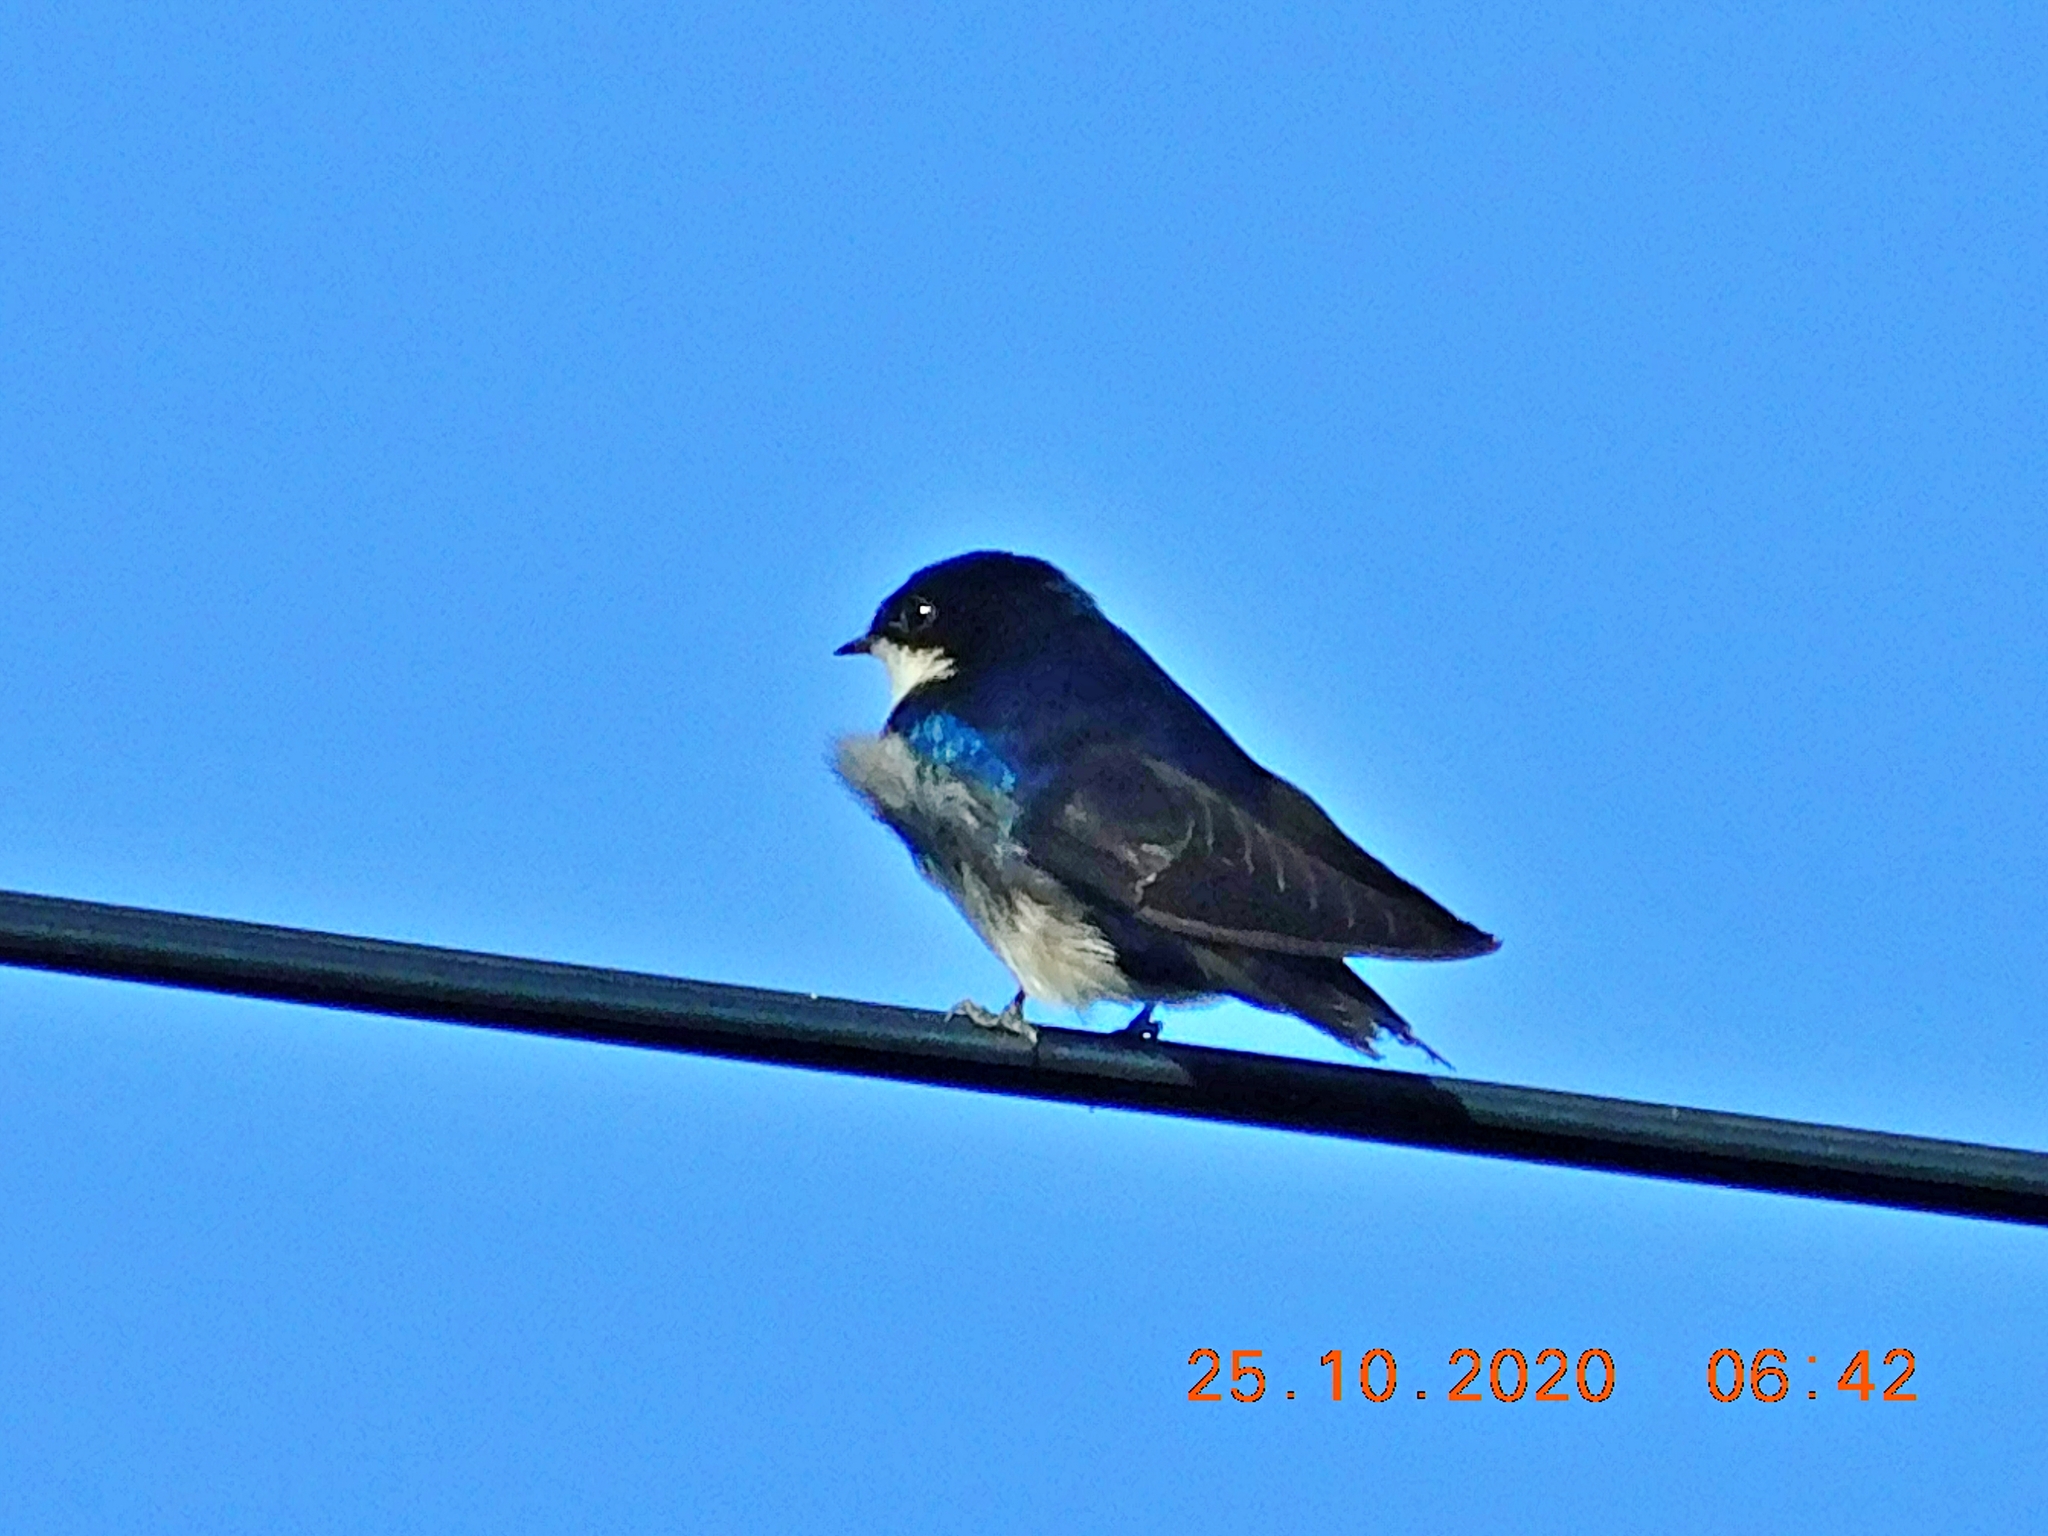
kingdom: Animalia
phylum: Chordata
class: Aves
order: Passeriformes
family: Hirundinidae
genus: Notiochelidon
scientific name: Notiochelidon cyanoleuca
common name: Blue-and-white swallow
